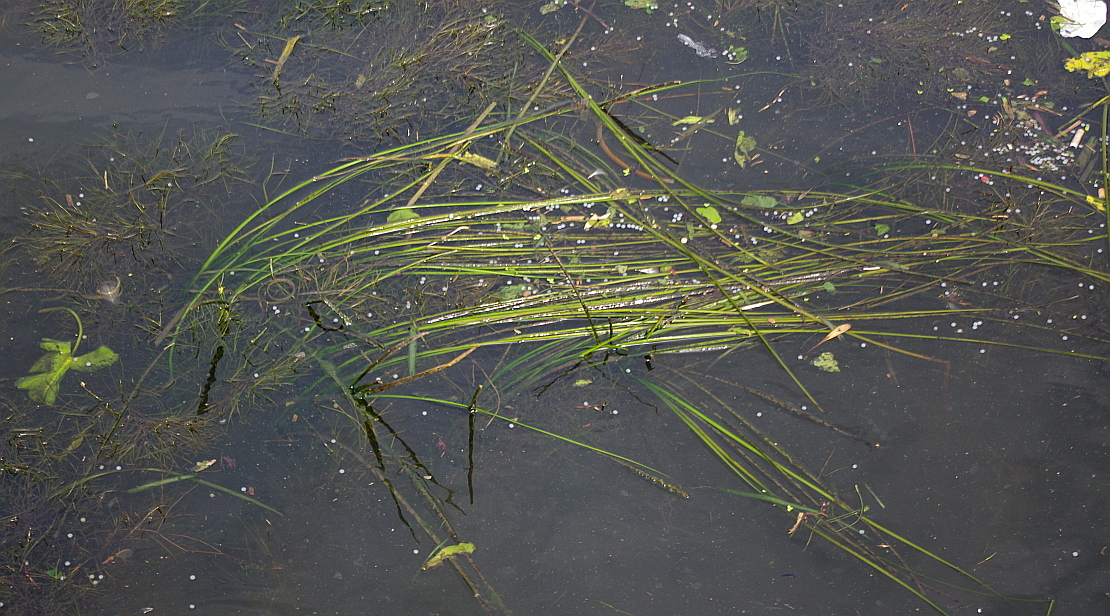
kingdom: Plantae
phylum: Tracheophyta
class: Liliopsida
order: Alismatales
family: Butomaceae
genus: Butomus
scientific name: Butomus umbellatus
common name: Flowering-rush
